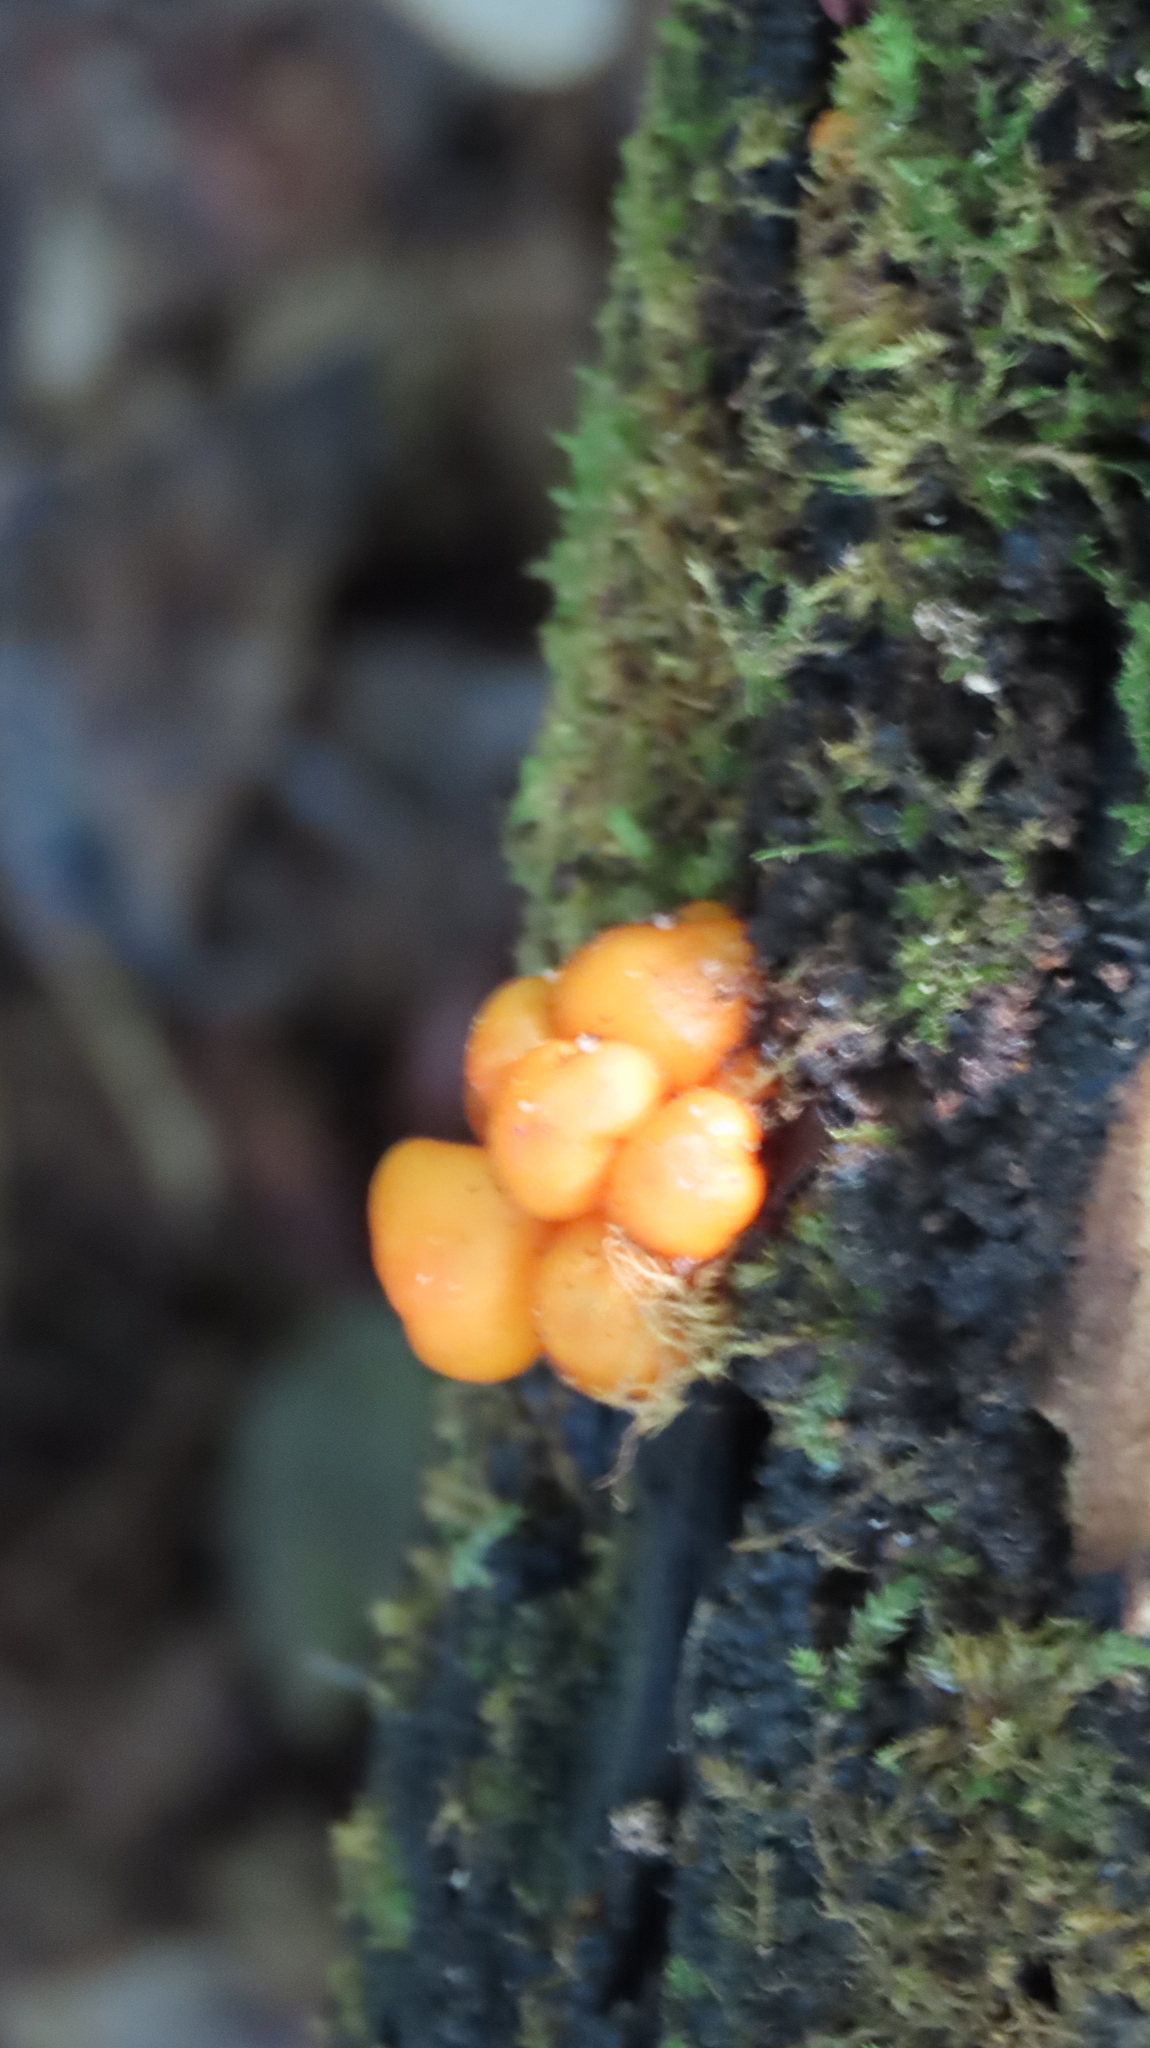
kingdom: Fungi
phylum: Basidiomycota
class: Agaricomycetes
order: Agaricales
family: Mycenaceae
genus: Mycena
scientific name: Mycena leaiana
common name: Orange mycena
